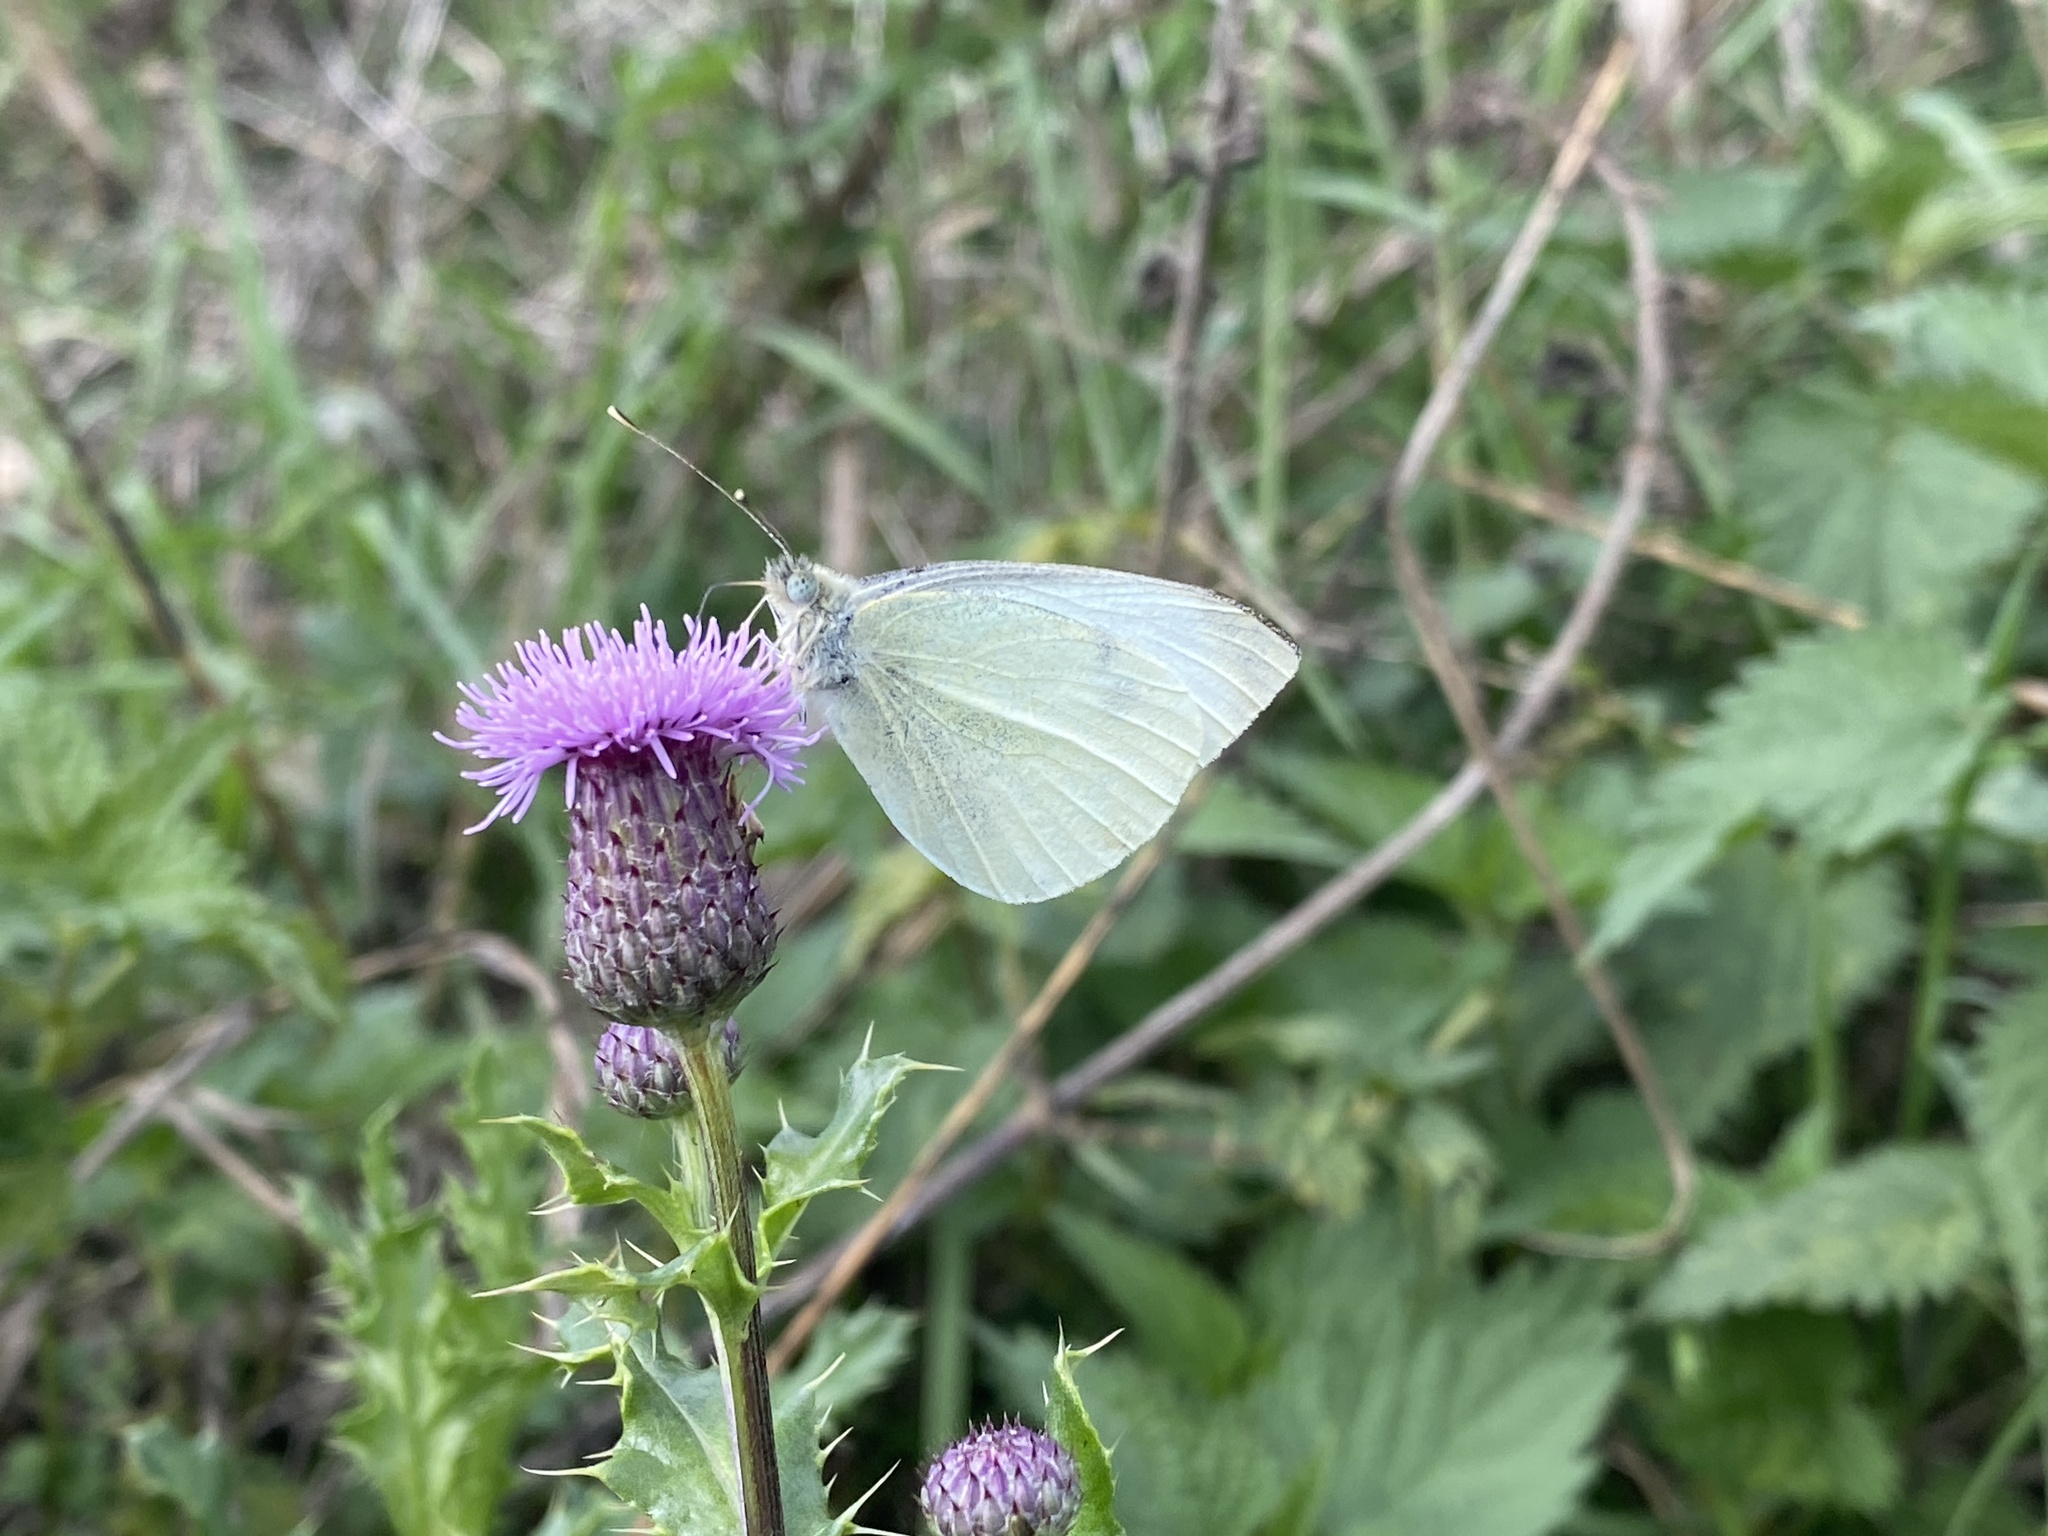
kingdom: Animalia
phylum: Arthropoda
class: Insecta
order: Lepidoptera
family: Pieridae
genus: Pieris
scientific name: Pieris rapae
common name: Small white
